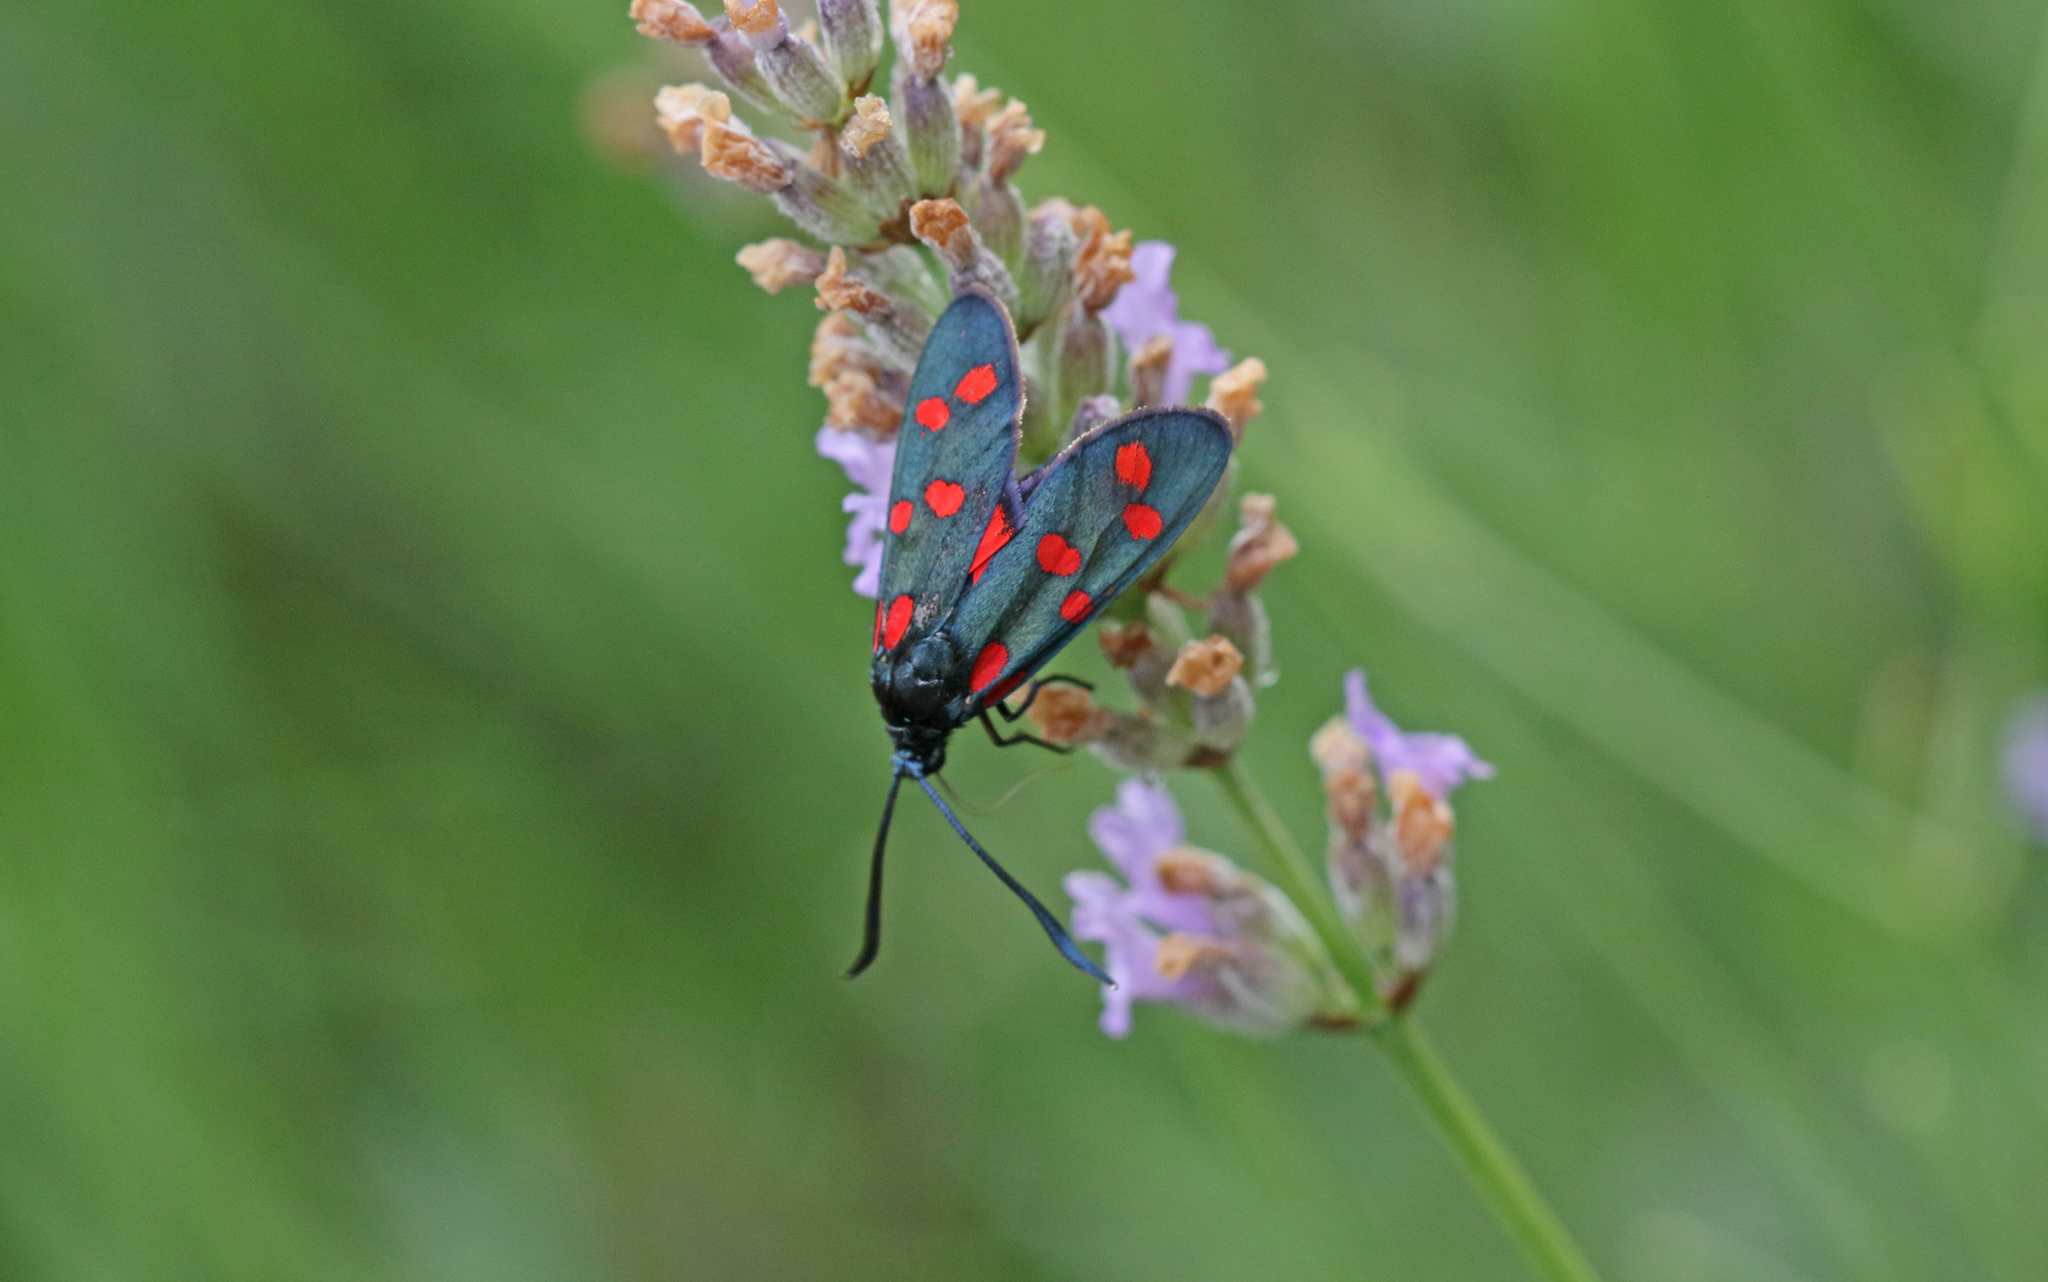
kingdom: Animalia
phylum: Arthropoda
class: Insecta
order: Lepidoptera
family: Zygaenidae
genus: Zygaena
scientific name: Zygaena transalpina
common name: Southern six spot burnet
